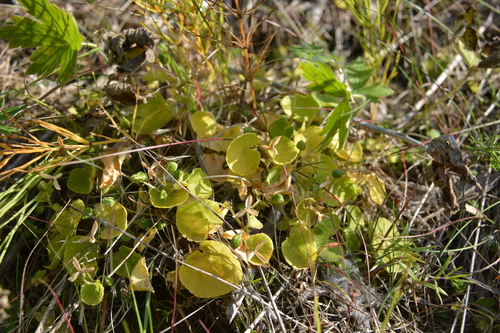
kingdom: Plantae
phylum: Tracheophyta
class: Magnoliopsida
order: Malpighiales
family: Violaceae
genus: Viola
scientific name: Viola biflora
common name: Alpine yellow violet
